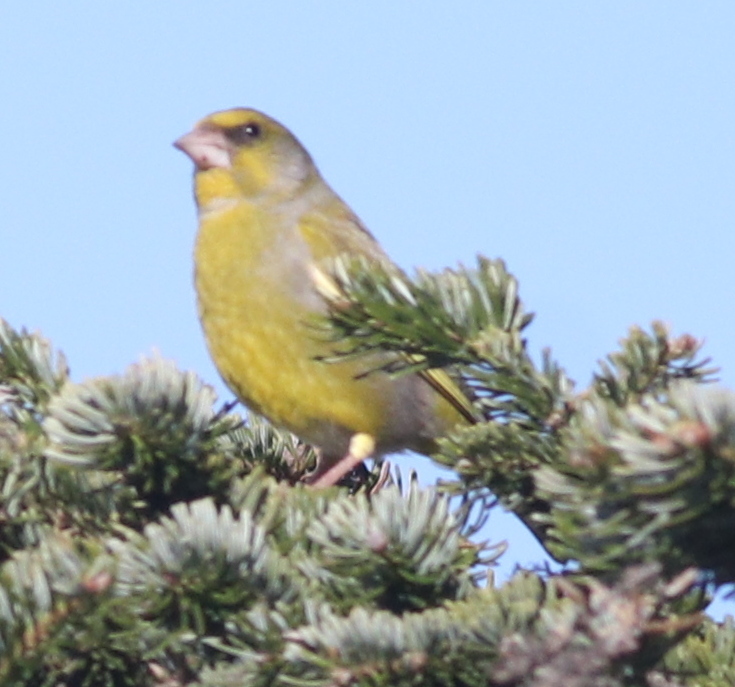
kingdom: Plantae
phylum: Tracheophyta
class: Liliopsida
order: Poales
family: Poaceae
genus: Chloris
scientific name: Chloris chloris
